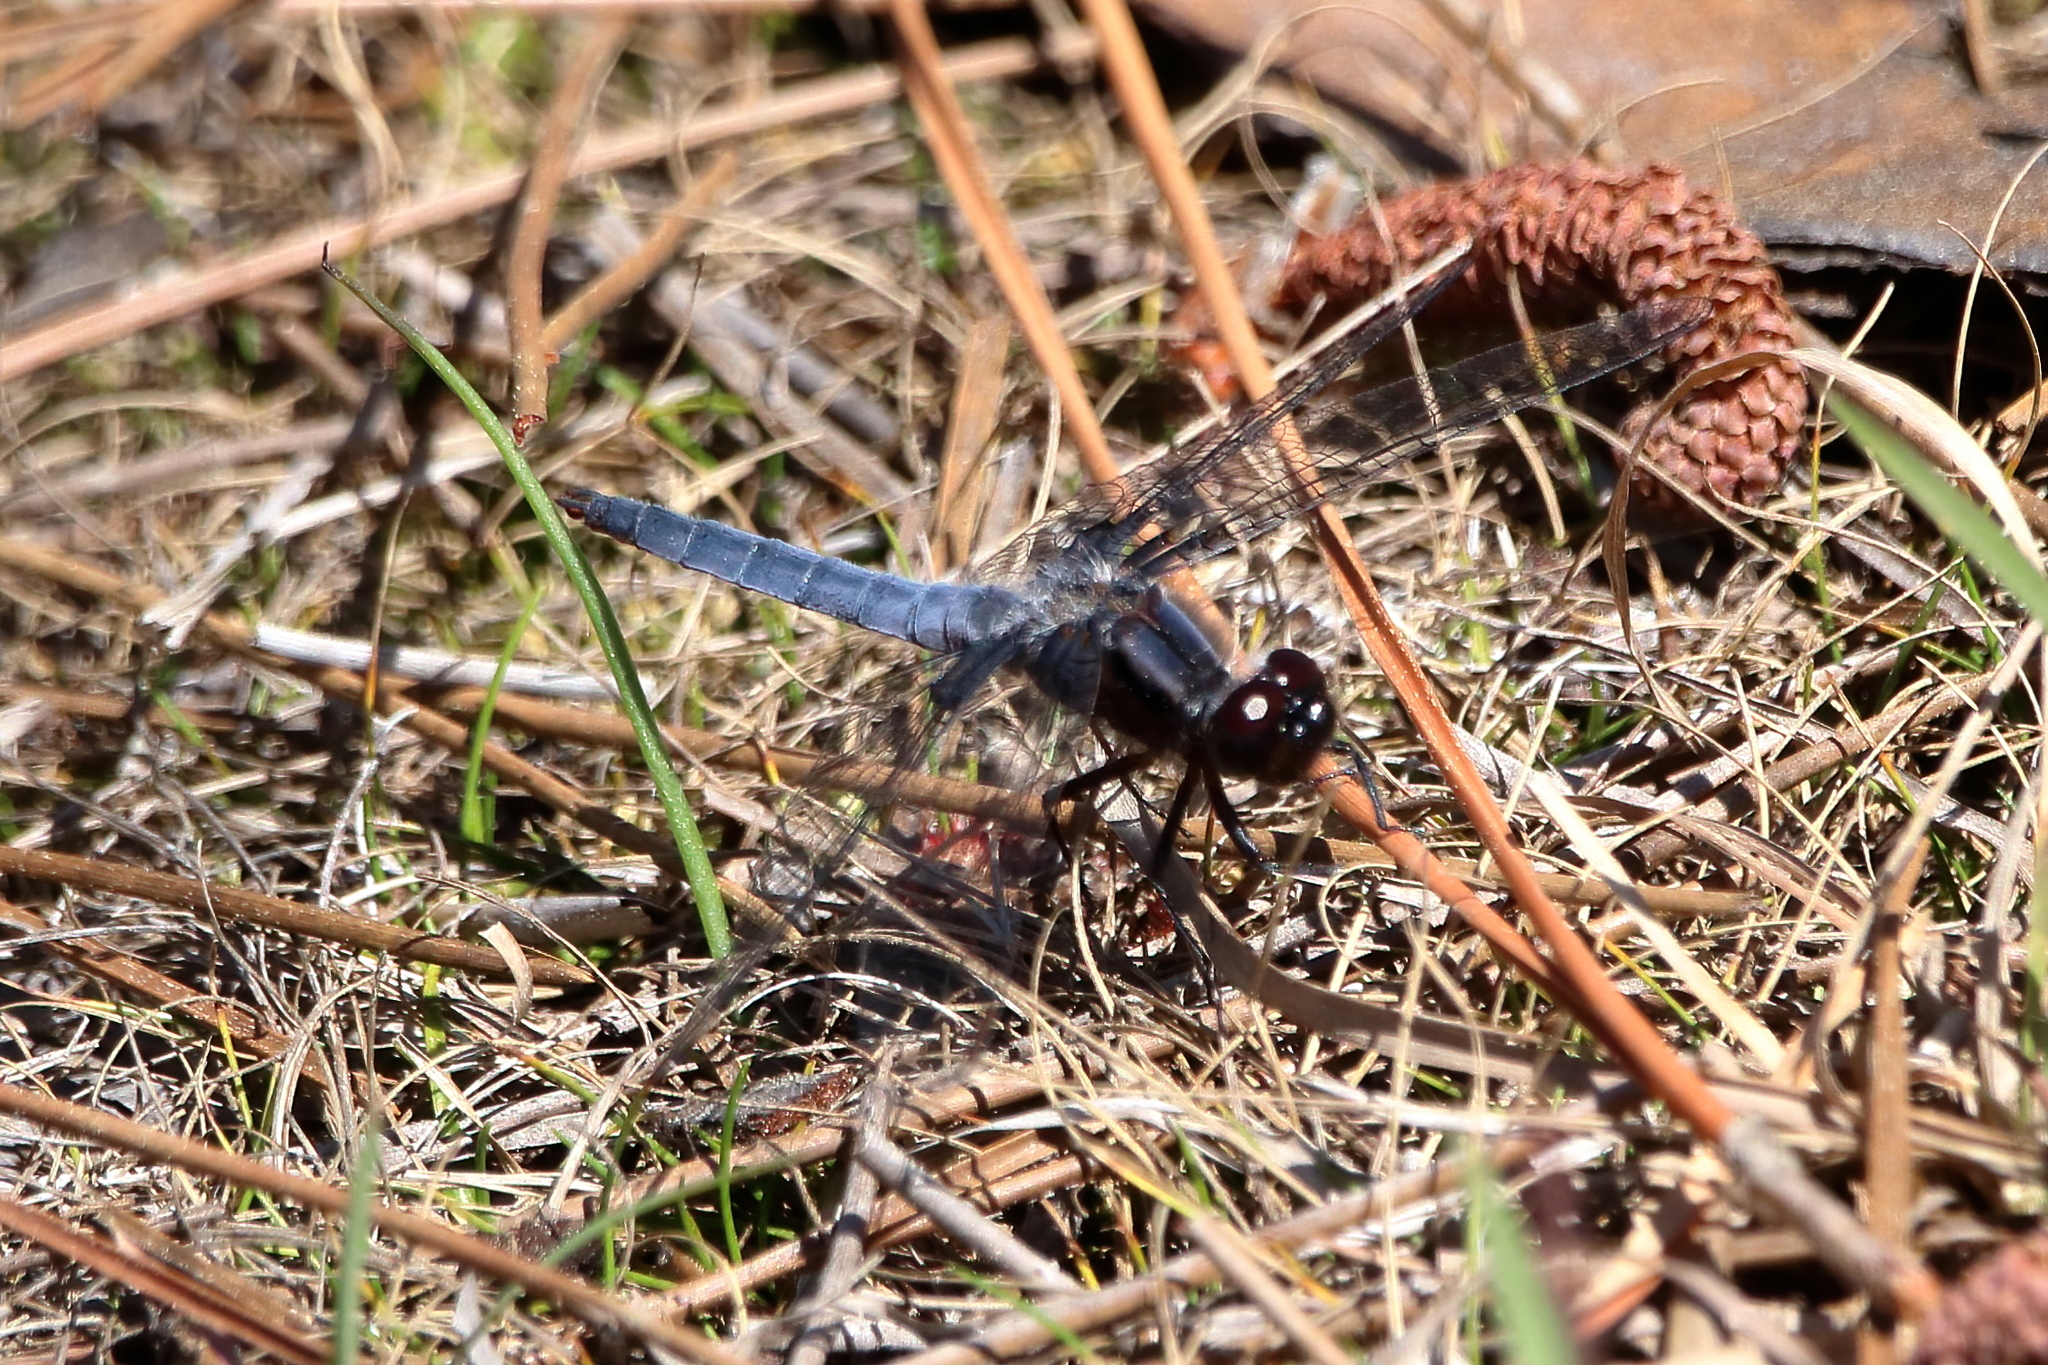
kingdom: Animalia
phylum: Arthropoda
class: Insecta
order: Odonata
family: Libellulidae
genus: Ladona
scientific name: Ladona deplanata
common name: Blue corporal
